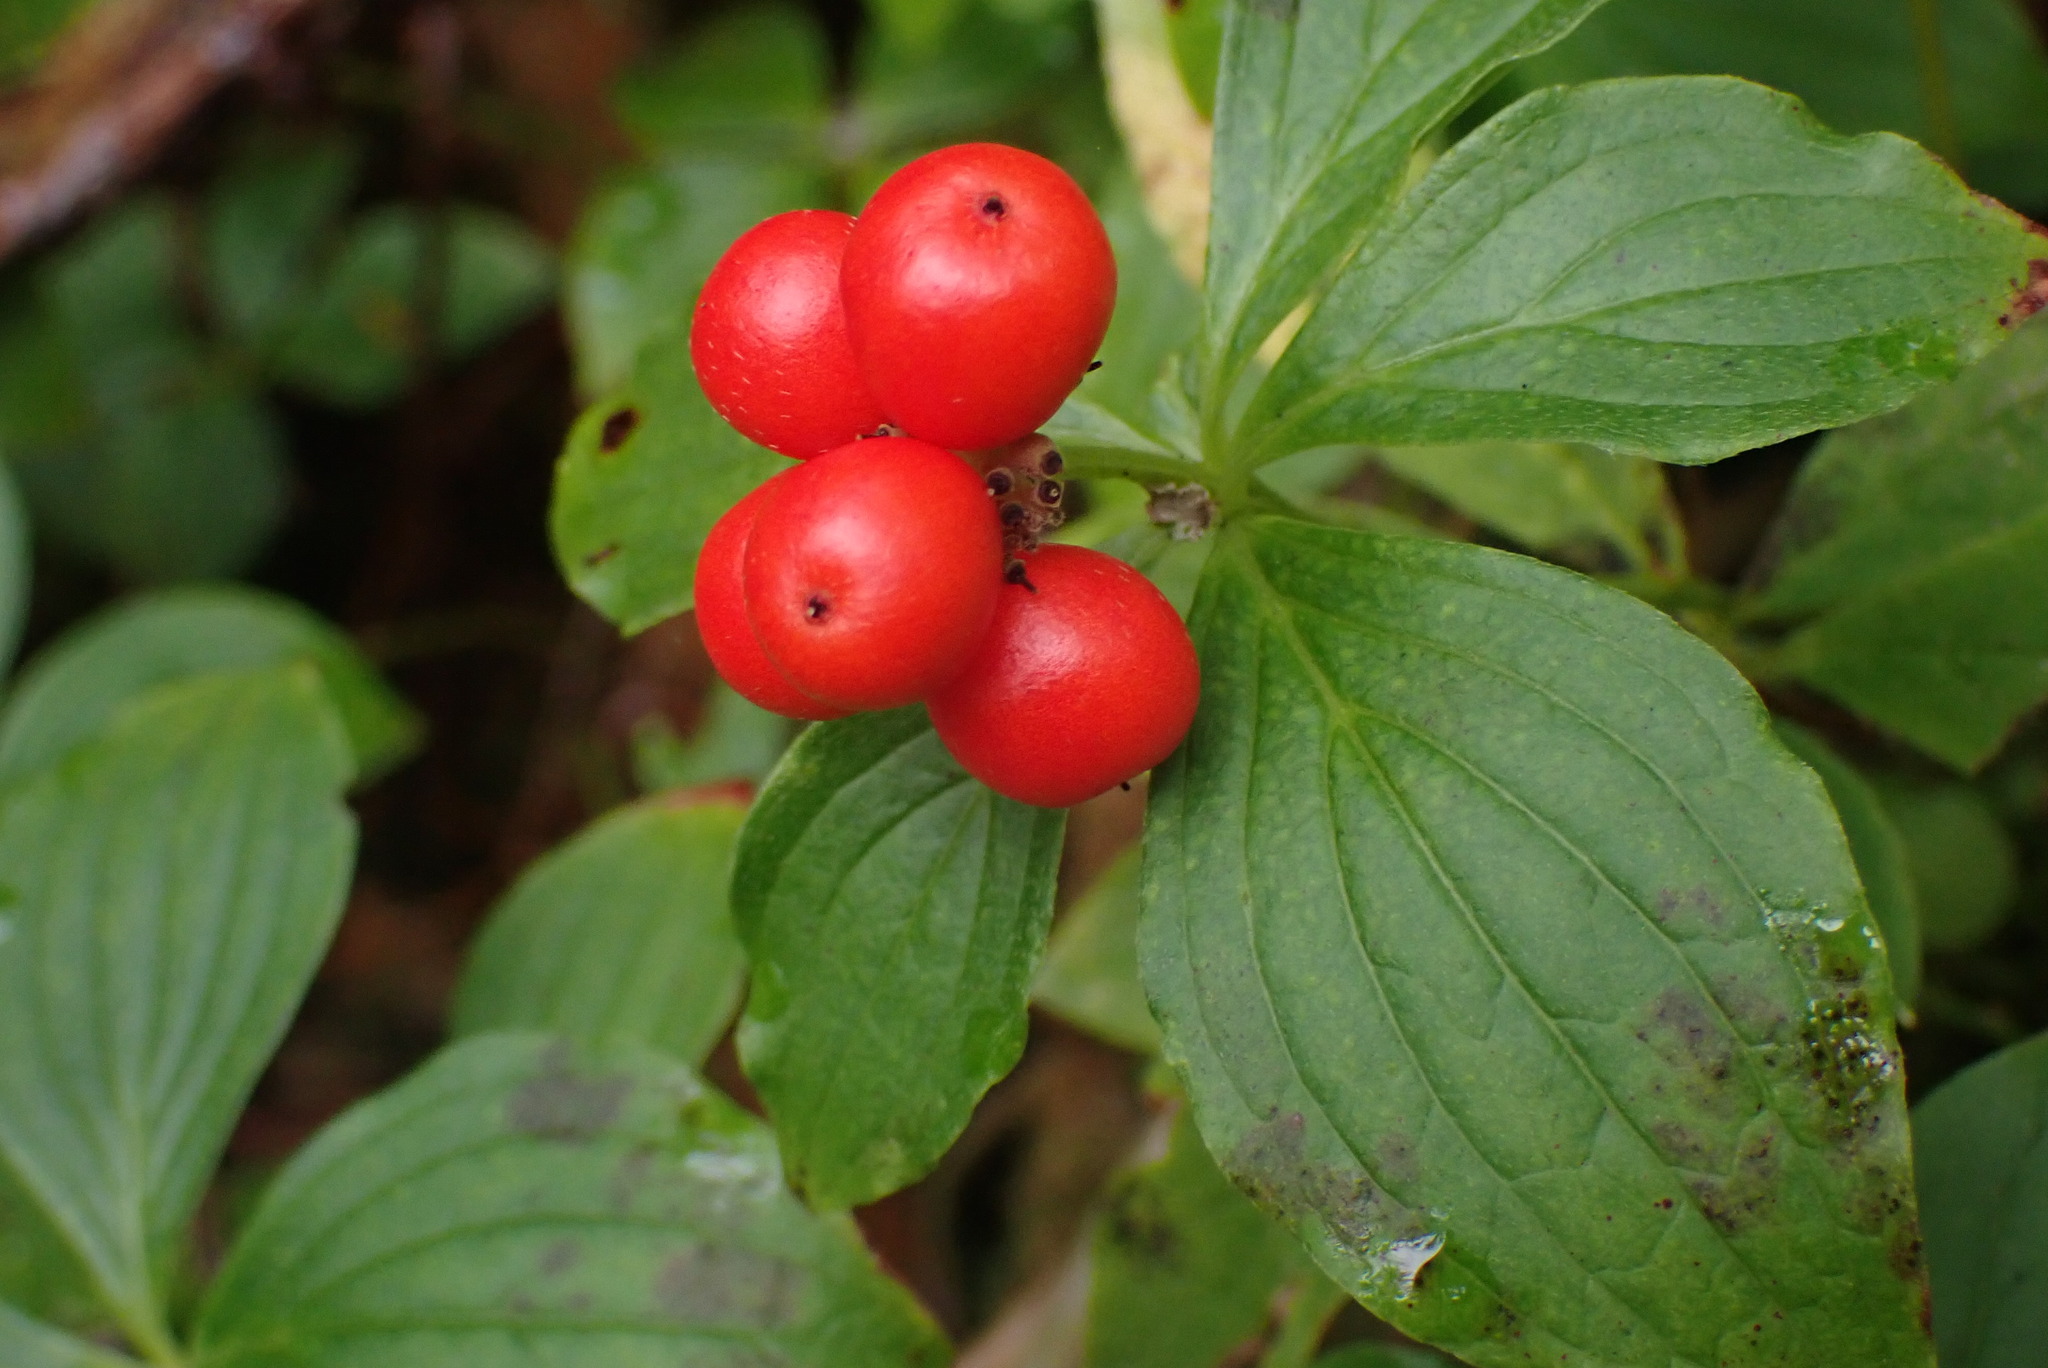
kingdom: Plantae
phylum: Tracheophyta
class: Magnoliopsida
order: Cornales
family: Cornaceae
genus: Cornus
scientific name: Cornus unalaschkensis
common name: Alaska bunchberry
